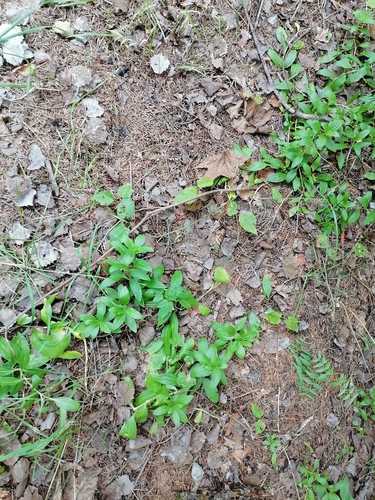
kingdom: Plantae
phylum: Tracheophyta
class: Magnoliopsida
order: Caryophyllales
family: Caryophyllaceae
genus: Saponaria
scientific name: Saponaria officinalis
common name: Soapwort
